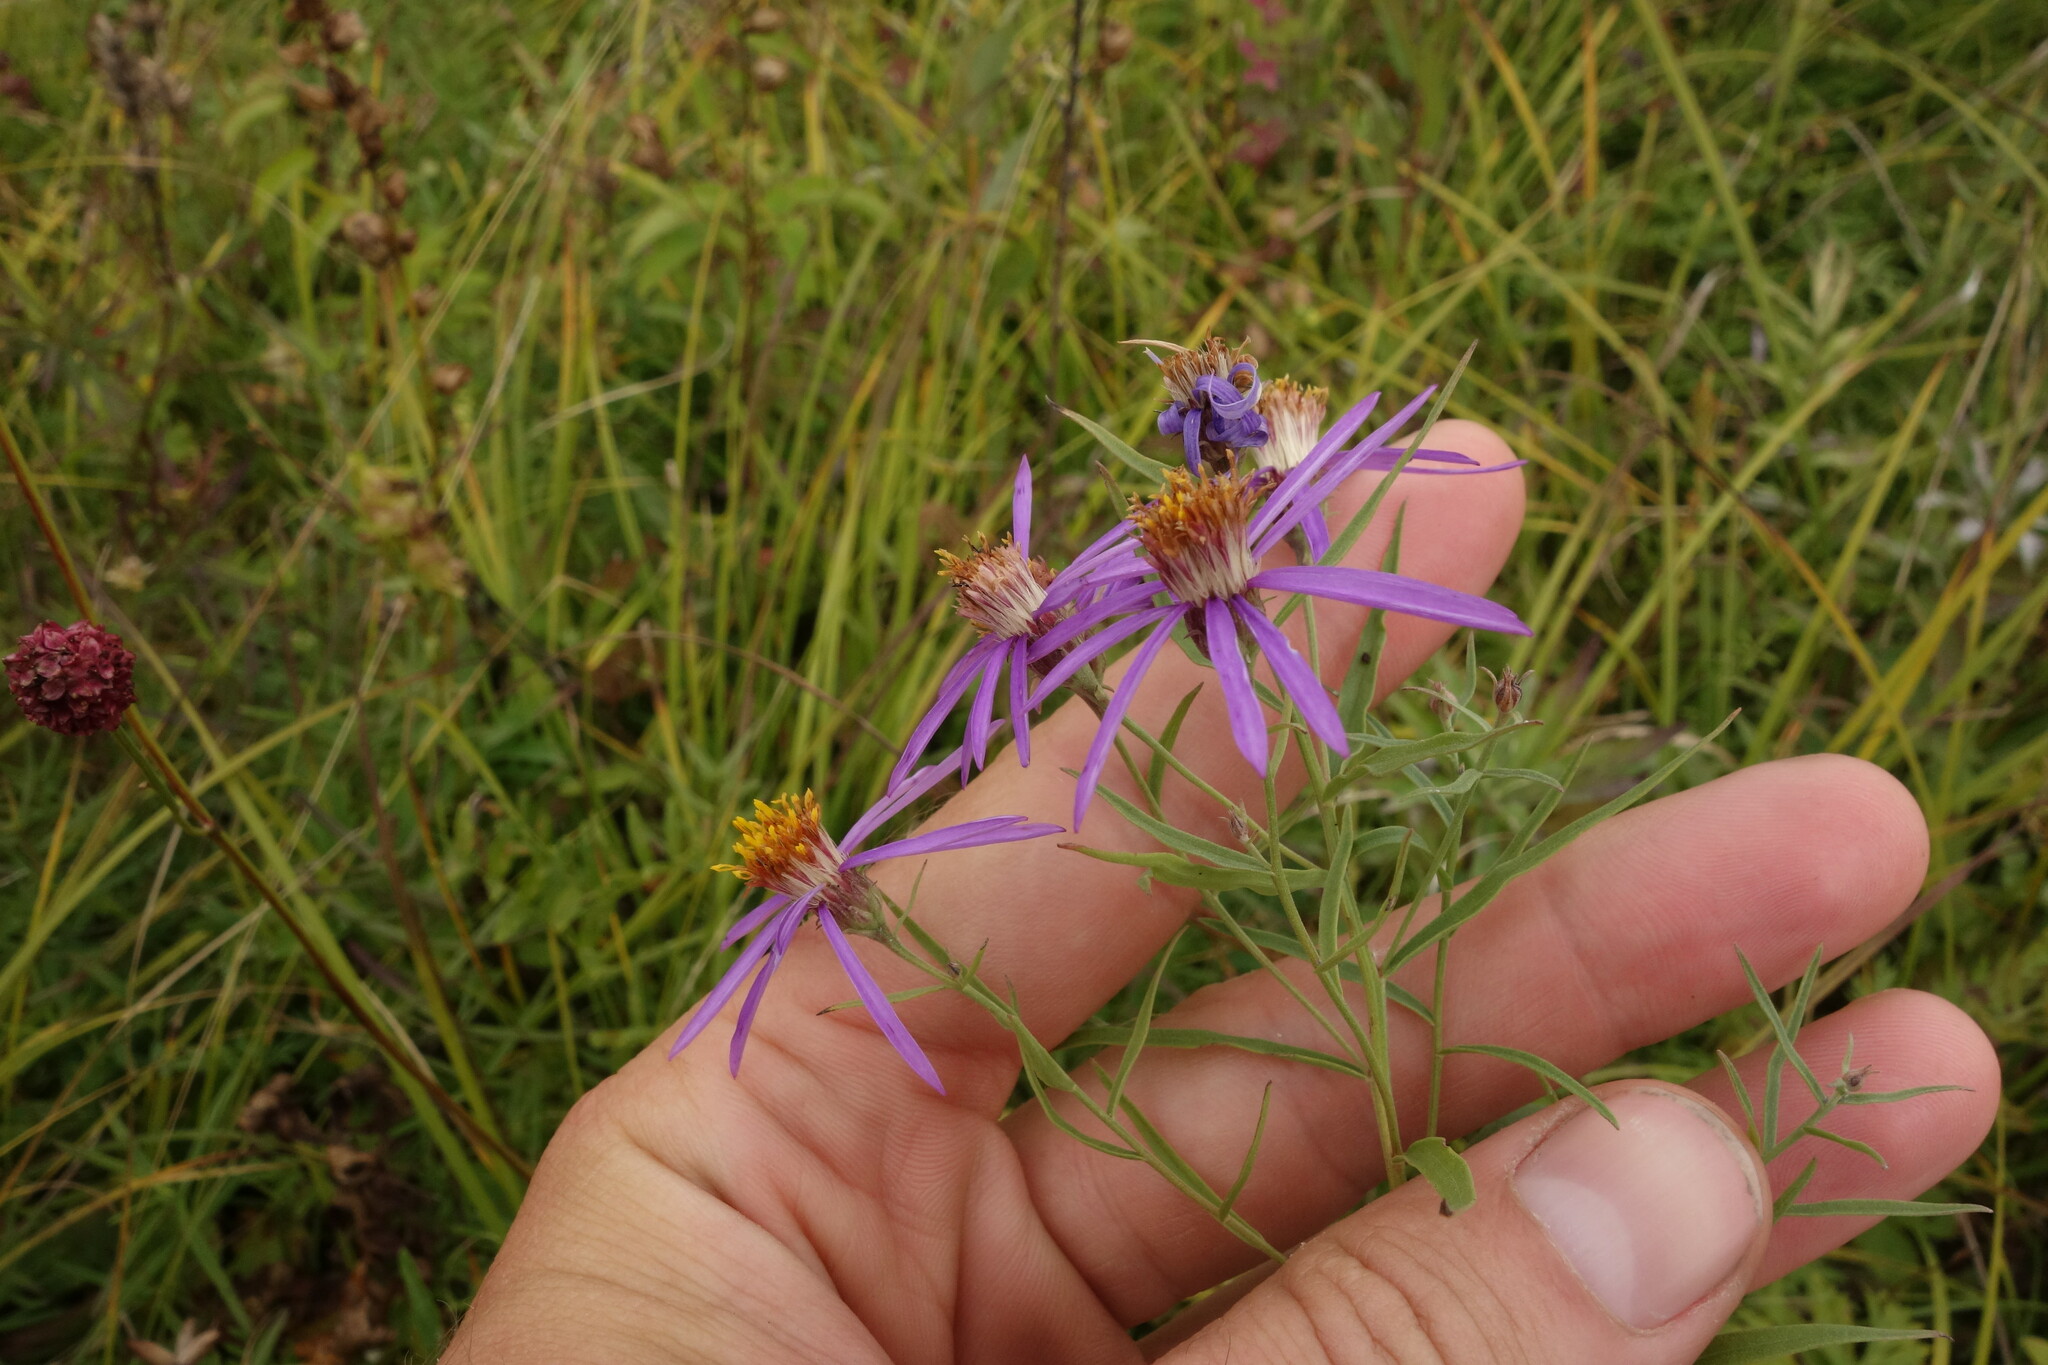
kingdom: Plantae
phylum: Tracheophyta
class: Magnoliopsida
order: Asterales
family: Asteraceae
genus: Galatella
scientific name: Galatella dahurica
